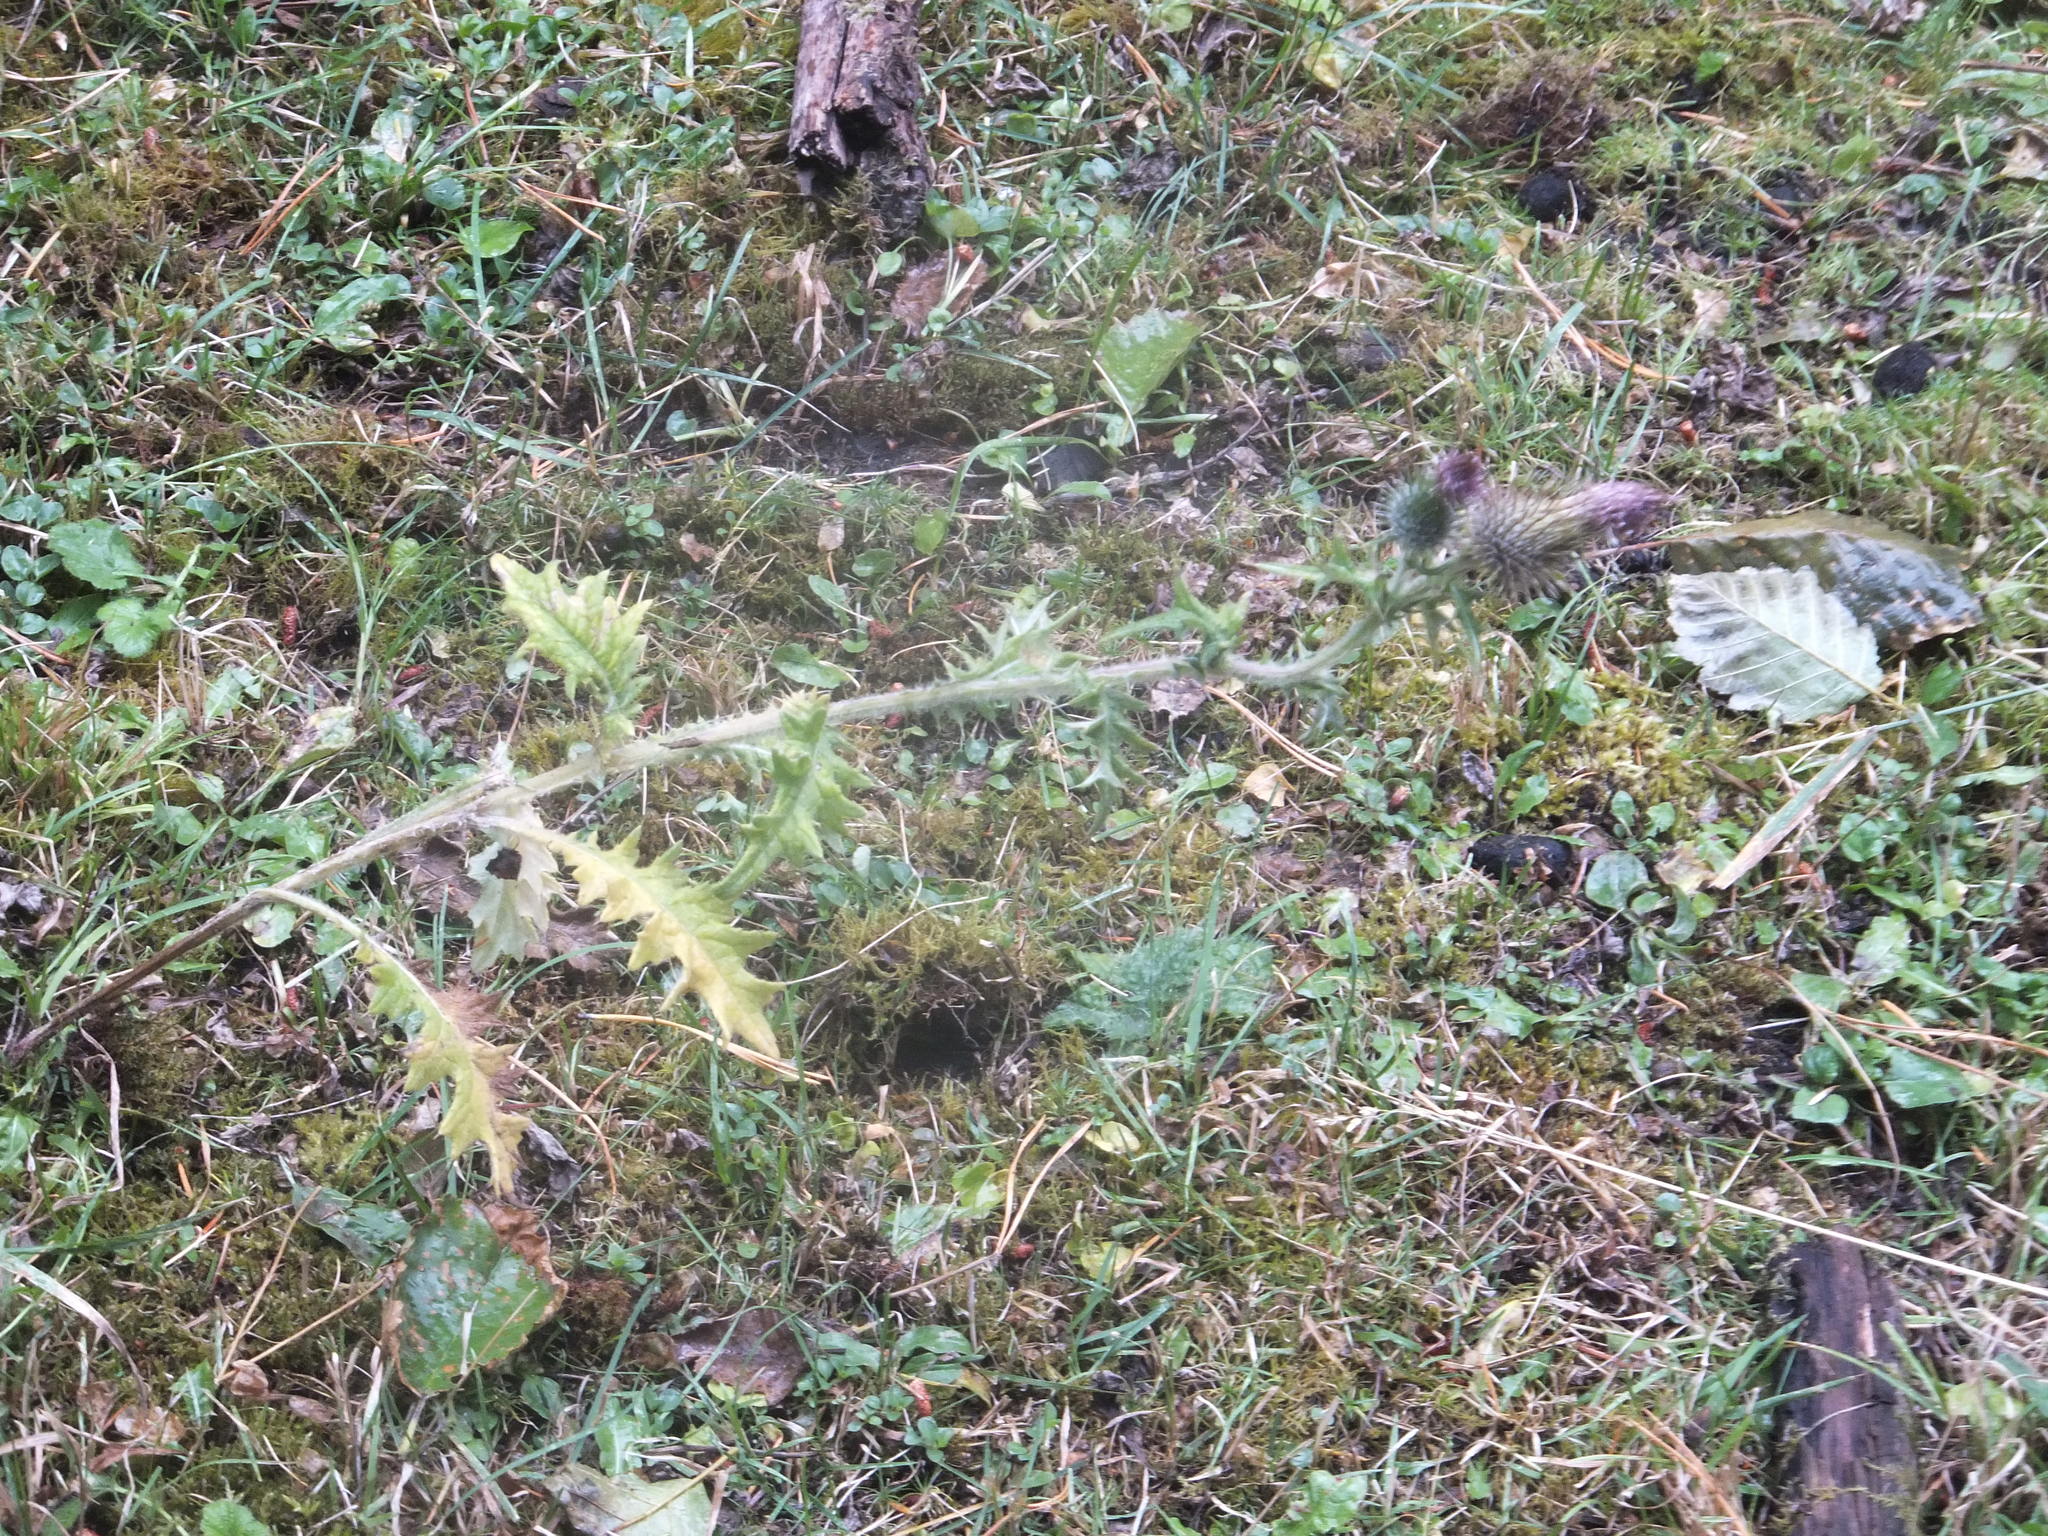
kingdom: Plantae
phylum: Tracheophyta
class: Magnoliopsida
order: Asterales
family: Asteraceae
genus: Cirsium
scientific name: Cirsium vulgare
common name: Bull thistle
